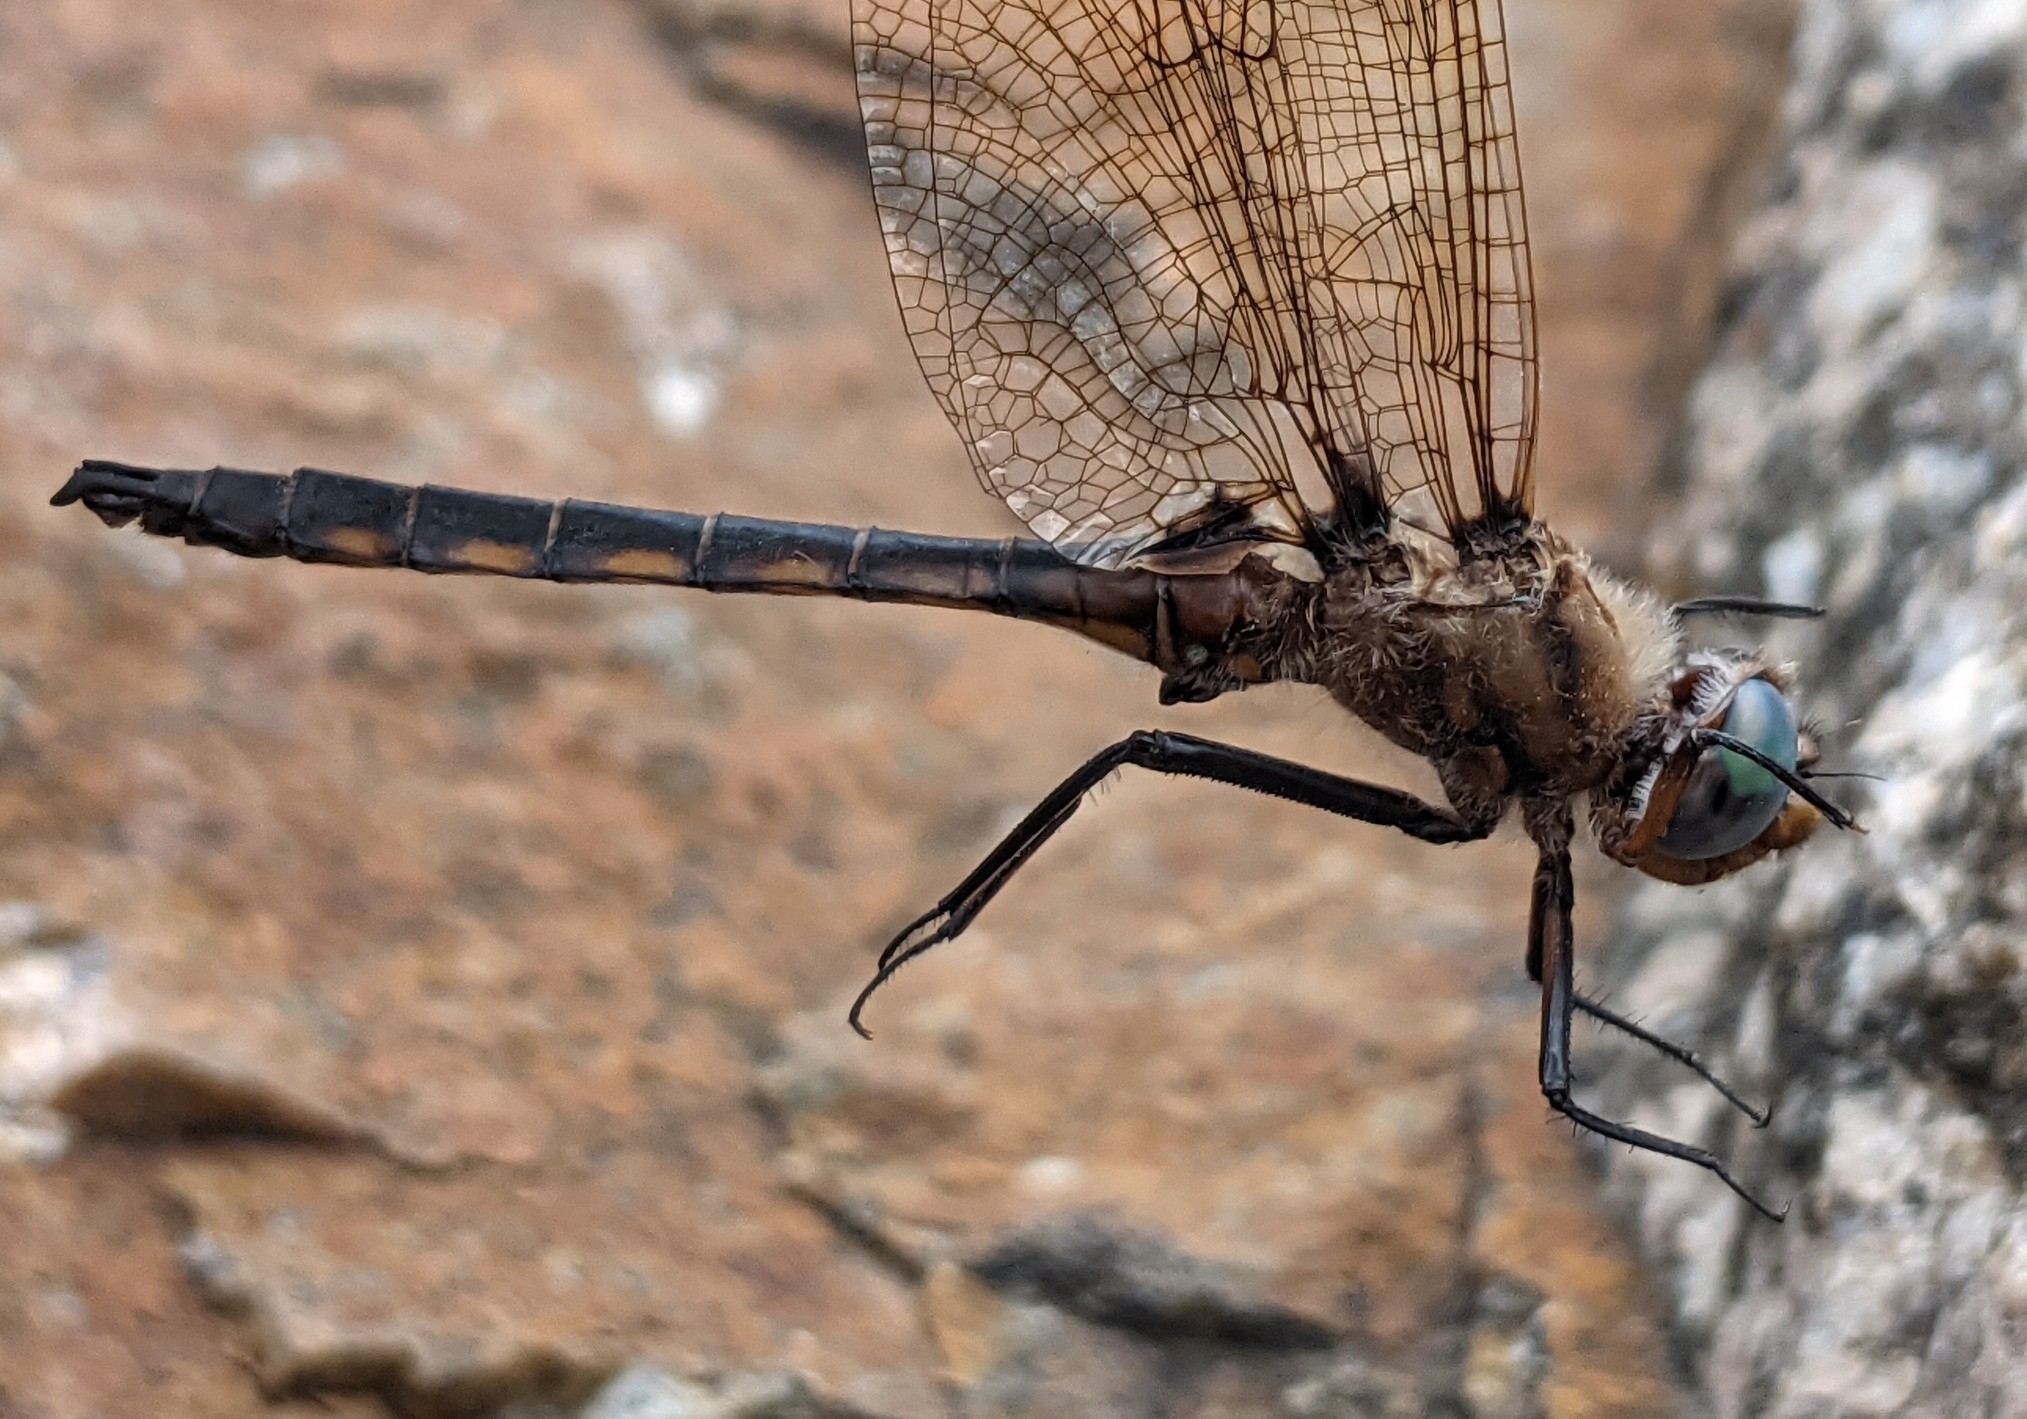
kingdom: Animalia
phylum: Arthropoda
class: Insecta
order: Odonata
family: Corduliidae
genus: Epitheca
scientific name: Epitheca canis
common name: Beaverpond baskettail
